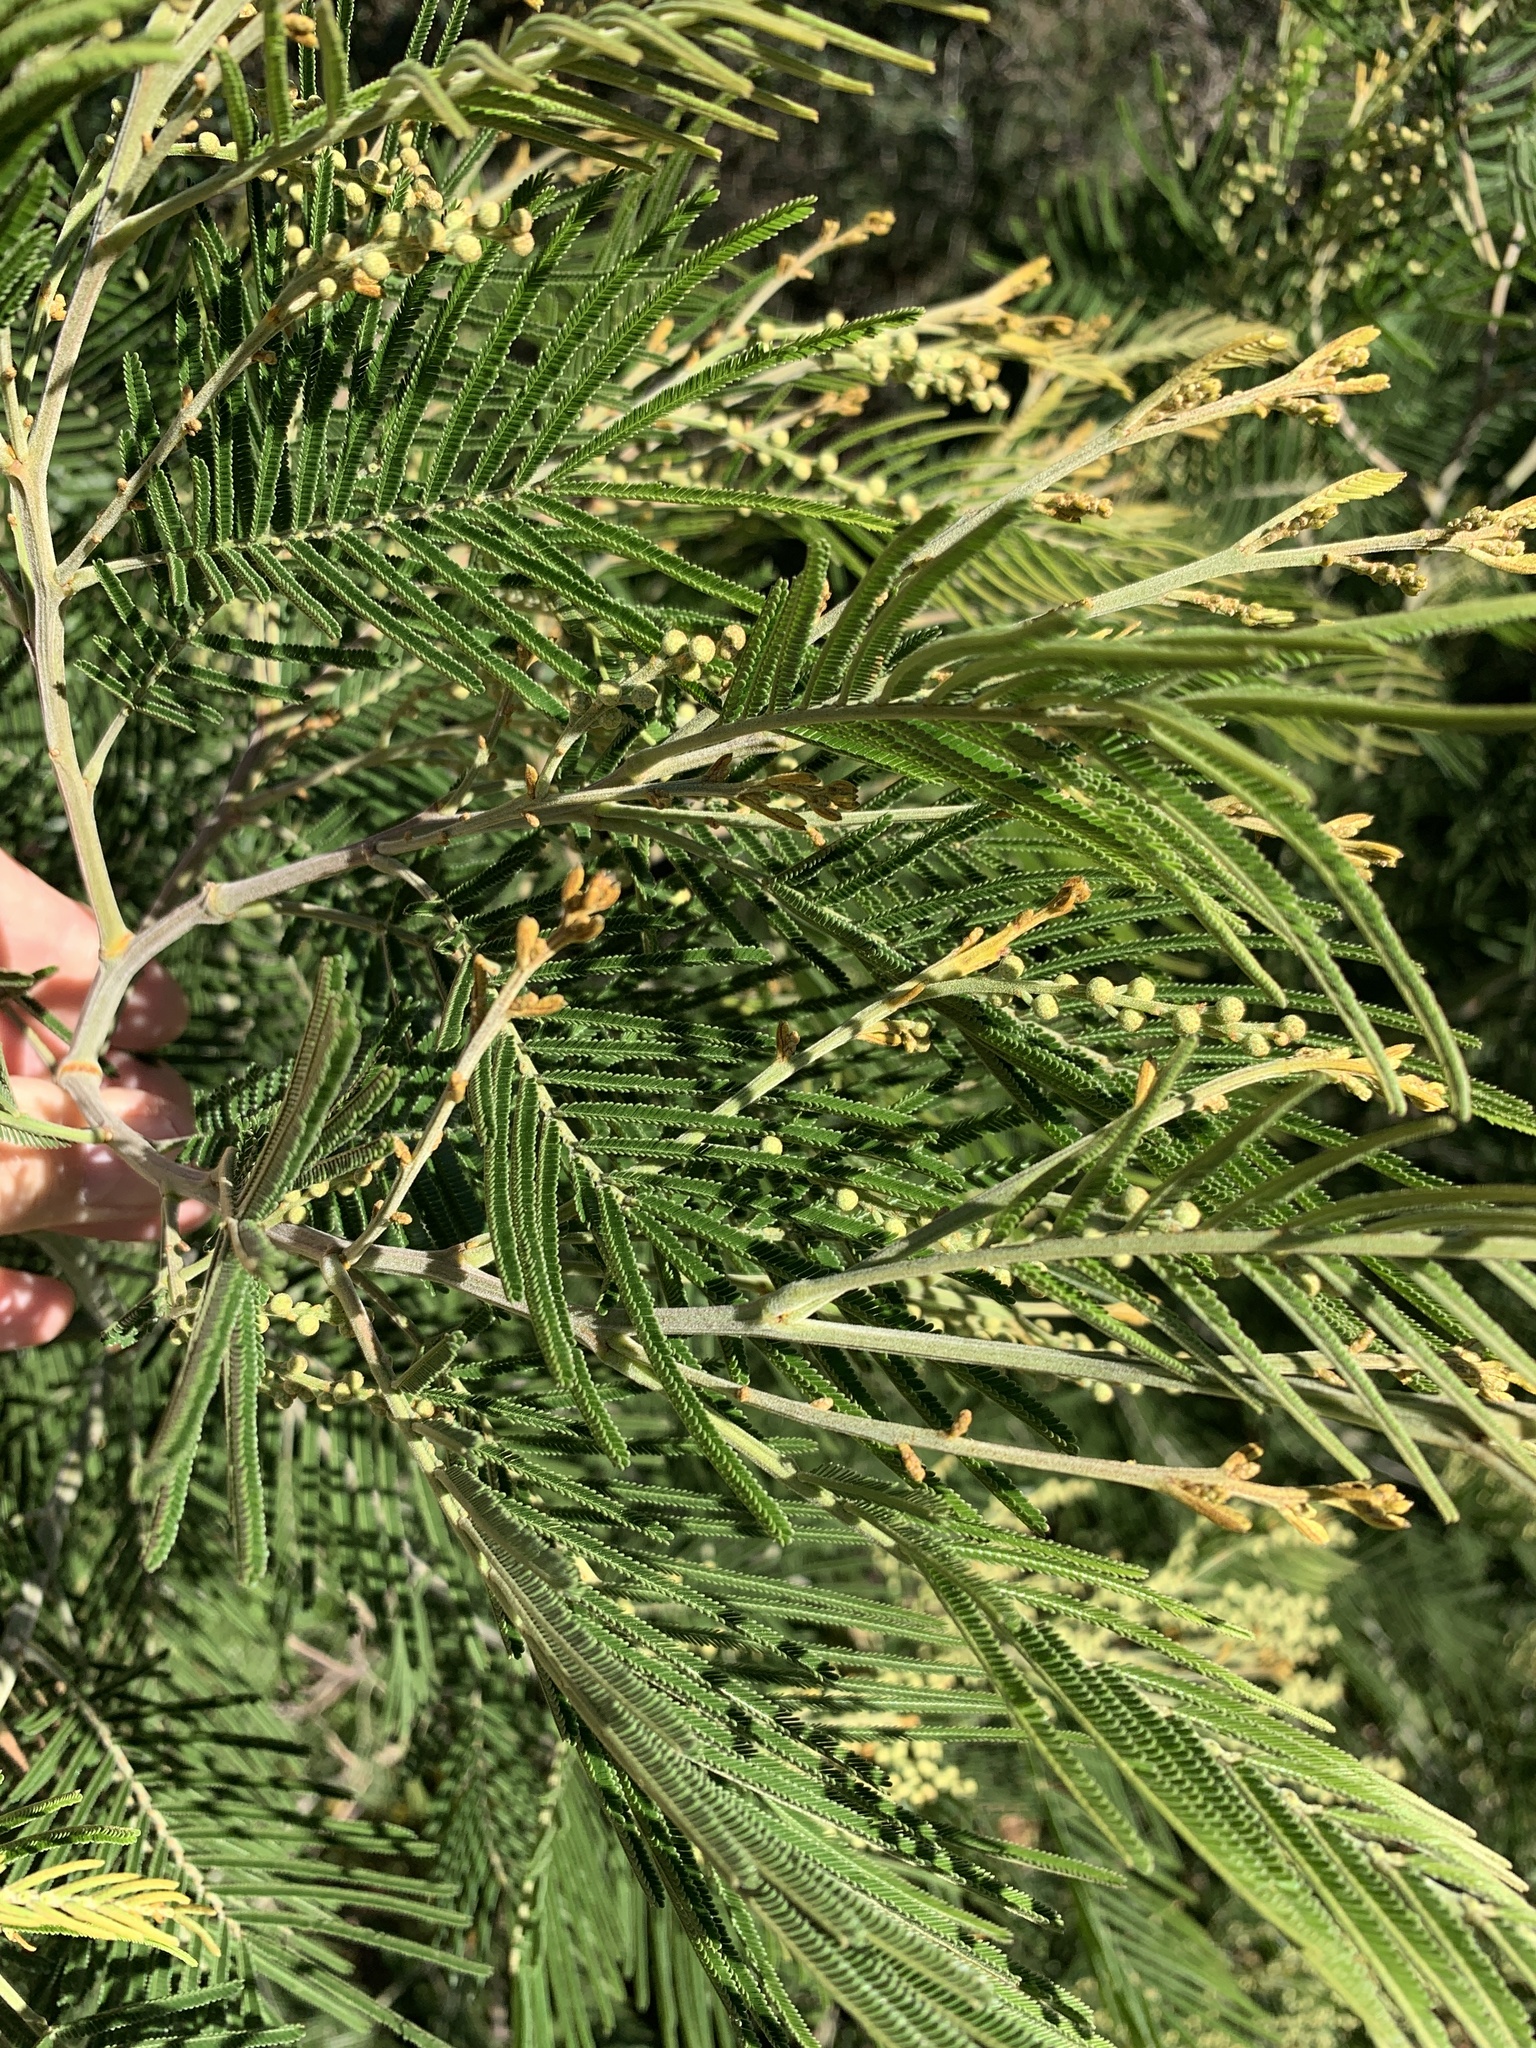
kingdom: Plantae
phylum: Tracheophyta
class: Magnoliopsida
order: Fabales
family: Fabaceae
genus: Acacia
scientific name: Acacia mearnsii
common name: Black wattle
